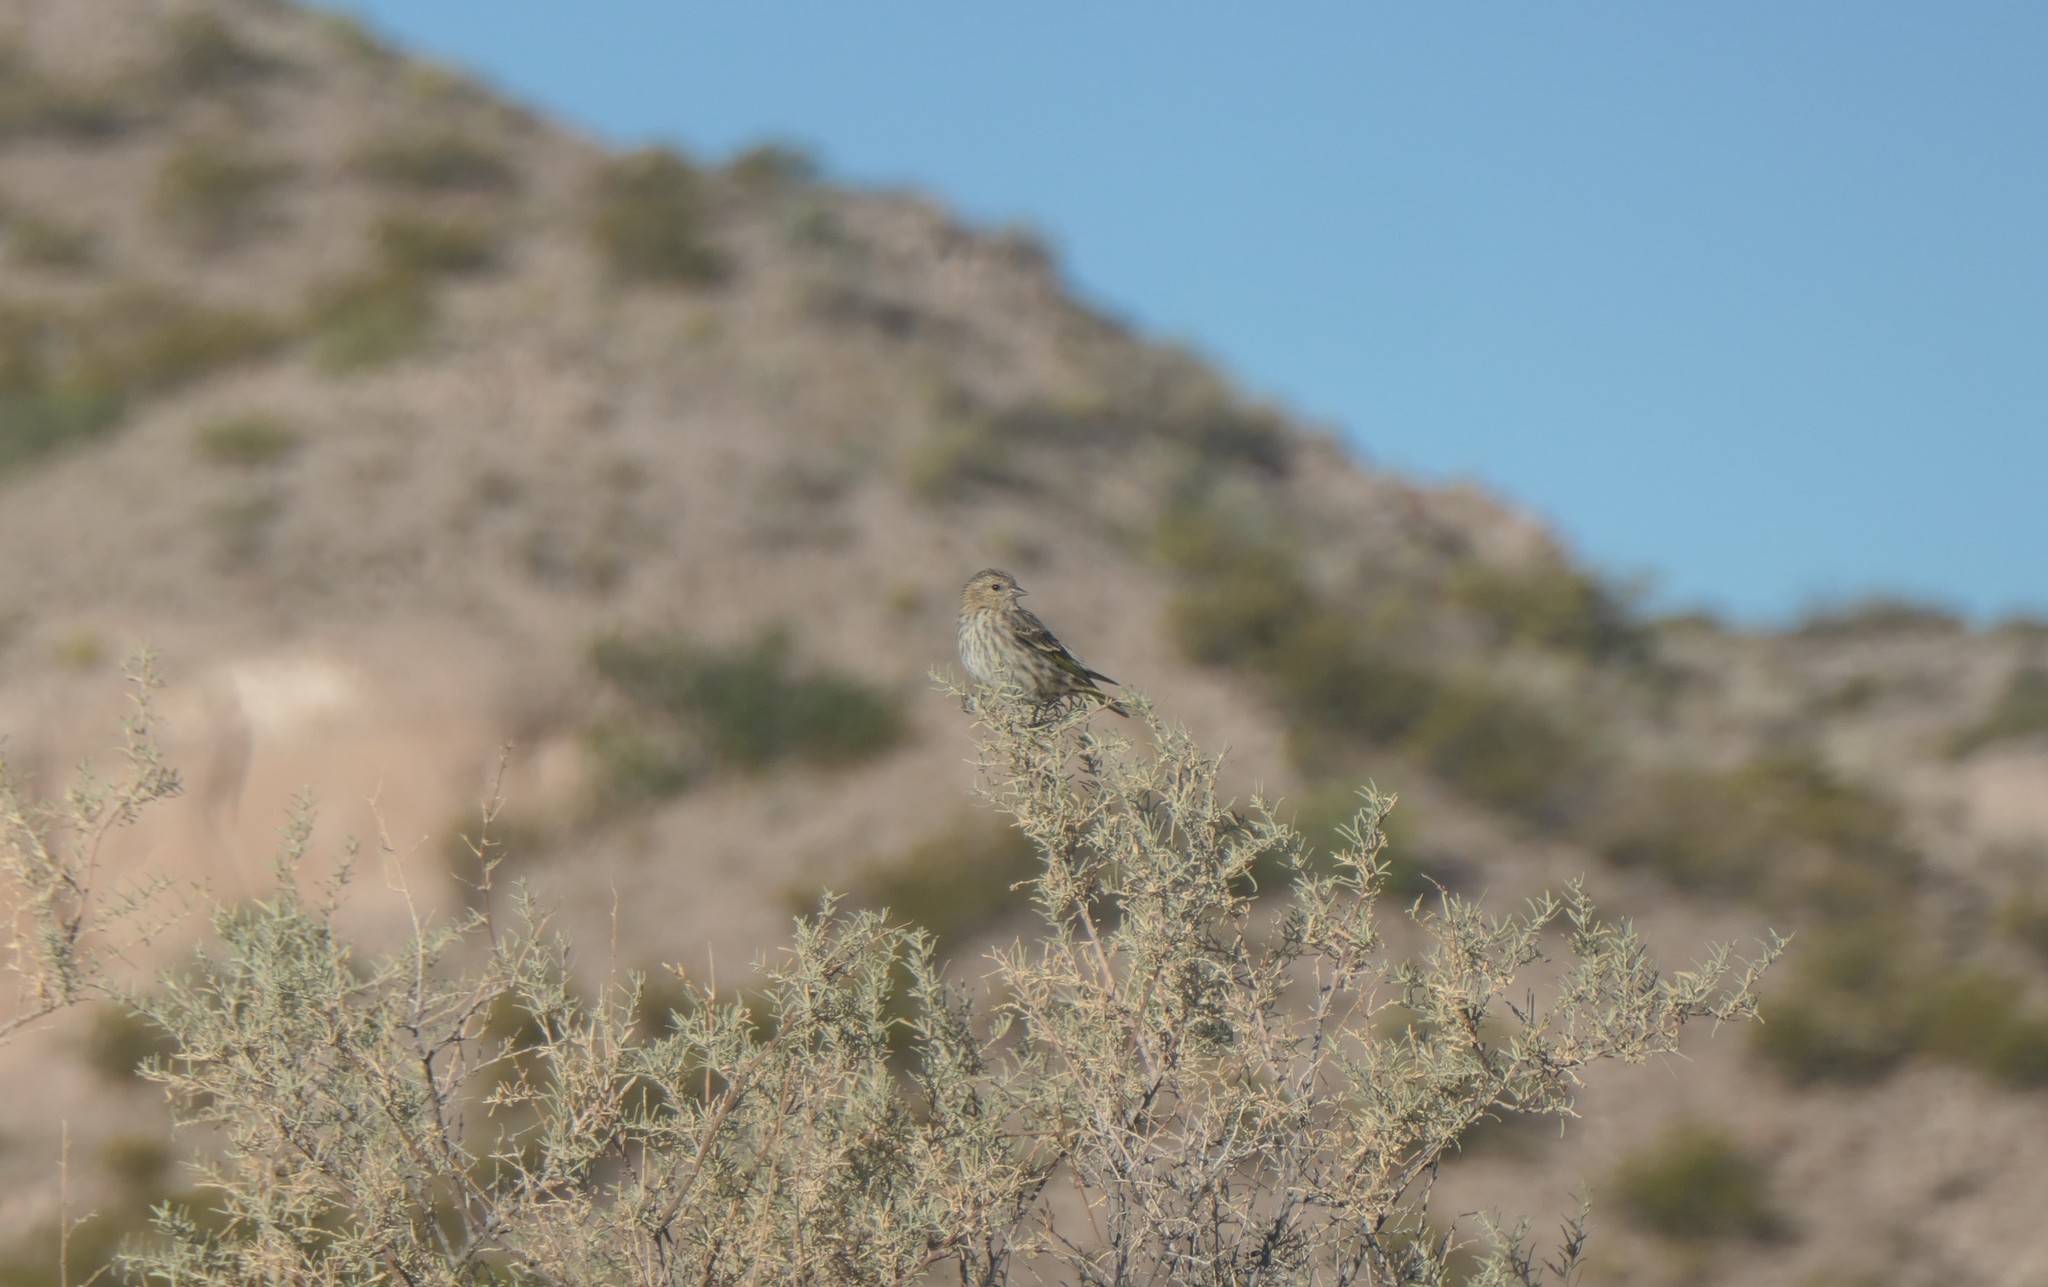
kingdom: Animalia
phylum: Chordata
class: Aves
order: Passeriformes
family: Fringillidae
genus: Spinus
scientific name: Spinus pinus
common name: Pine siskin
